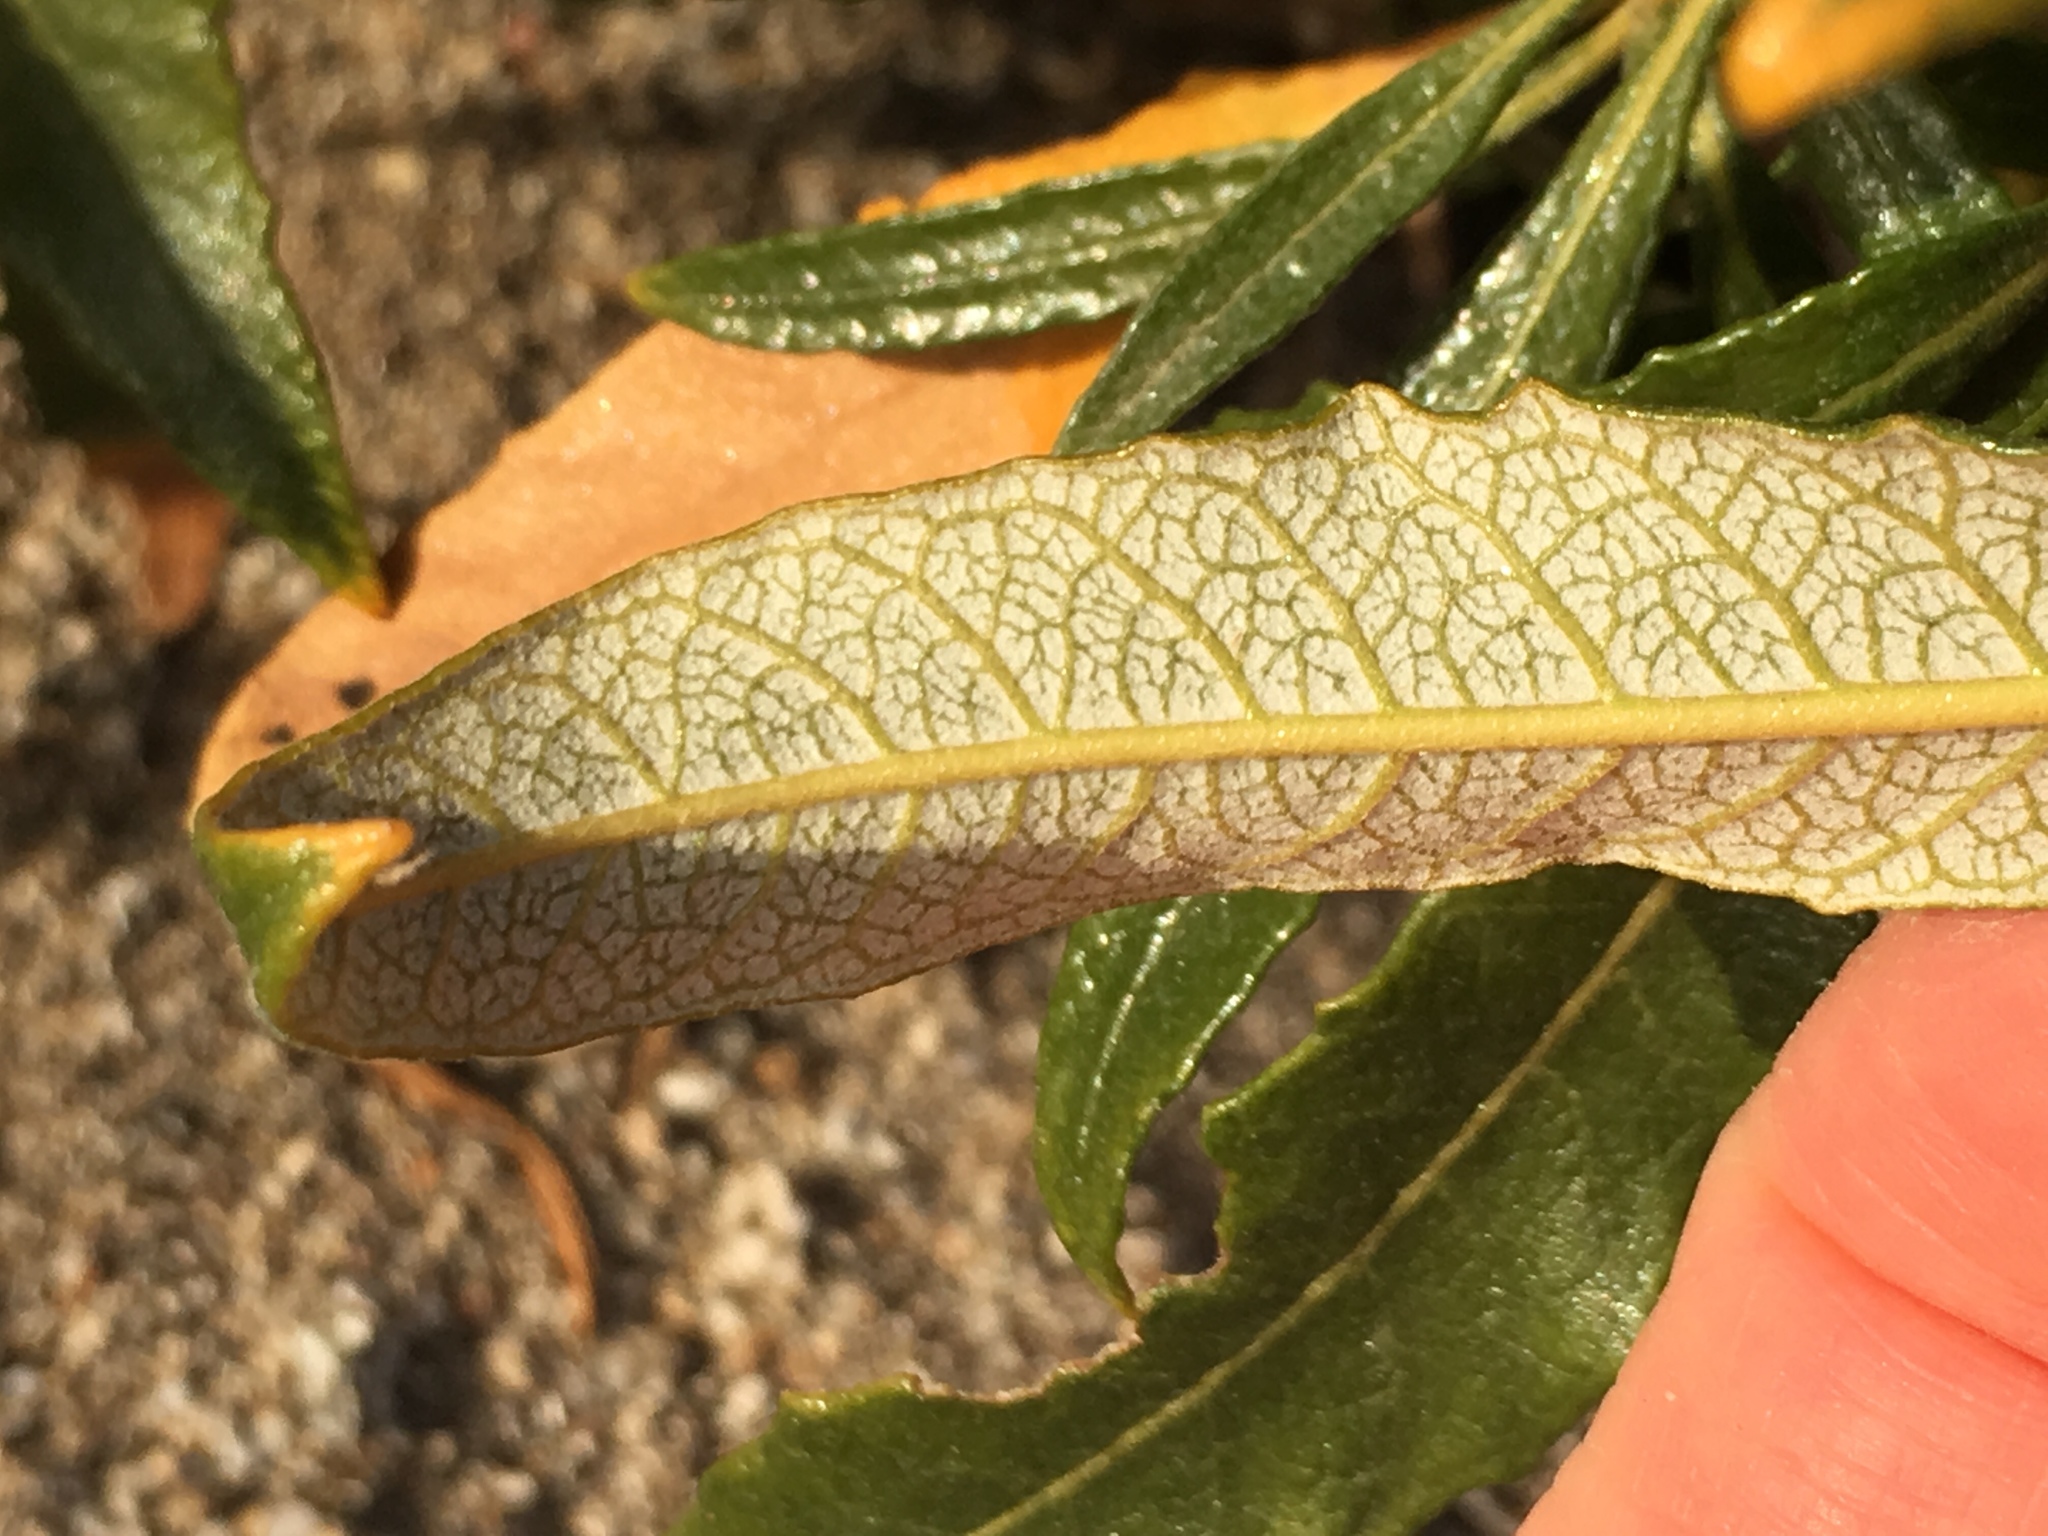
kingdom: Plantae
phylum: Tracheophyta
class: Magnoliopsida
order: Boraginales
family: Namaceae
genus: Eriodictyon
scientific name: Eriodictyon trichocalyx
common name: Hairy yerba-santa
